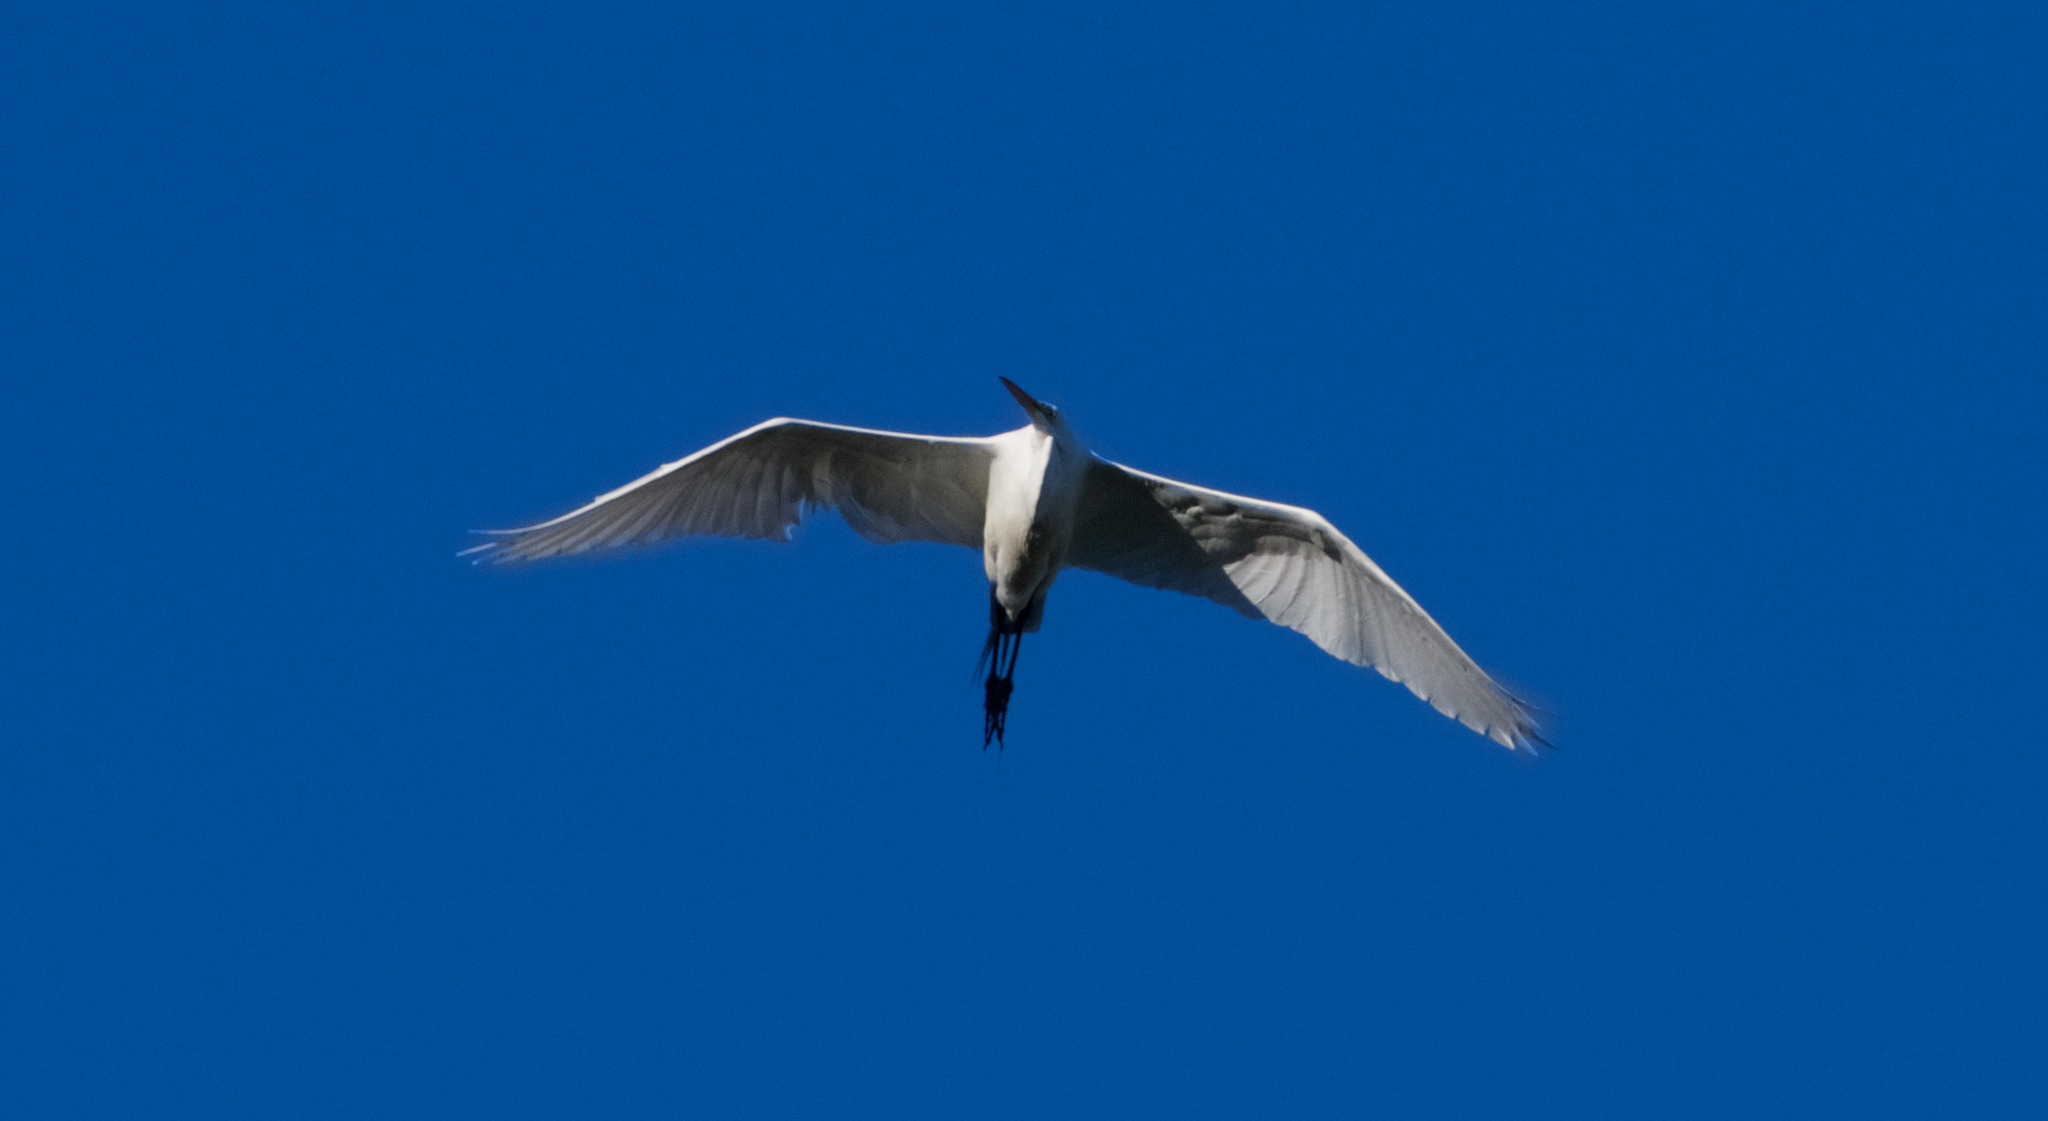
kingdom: Animalia
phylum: Chordata
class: Aves
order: Pelecaniformes
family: Ardeidae
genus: Ardea
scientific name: Ardea alba
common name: Great egret
